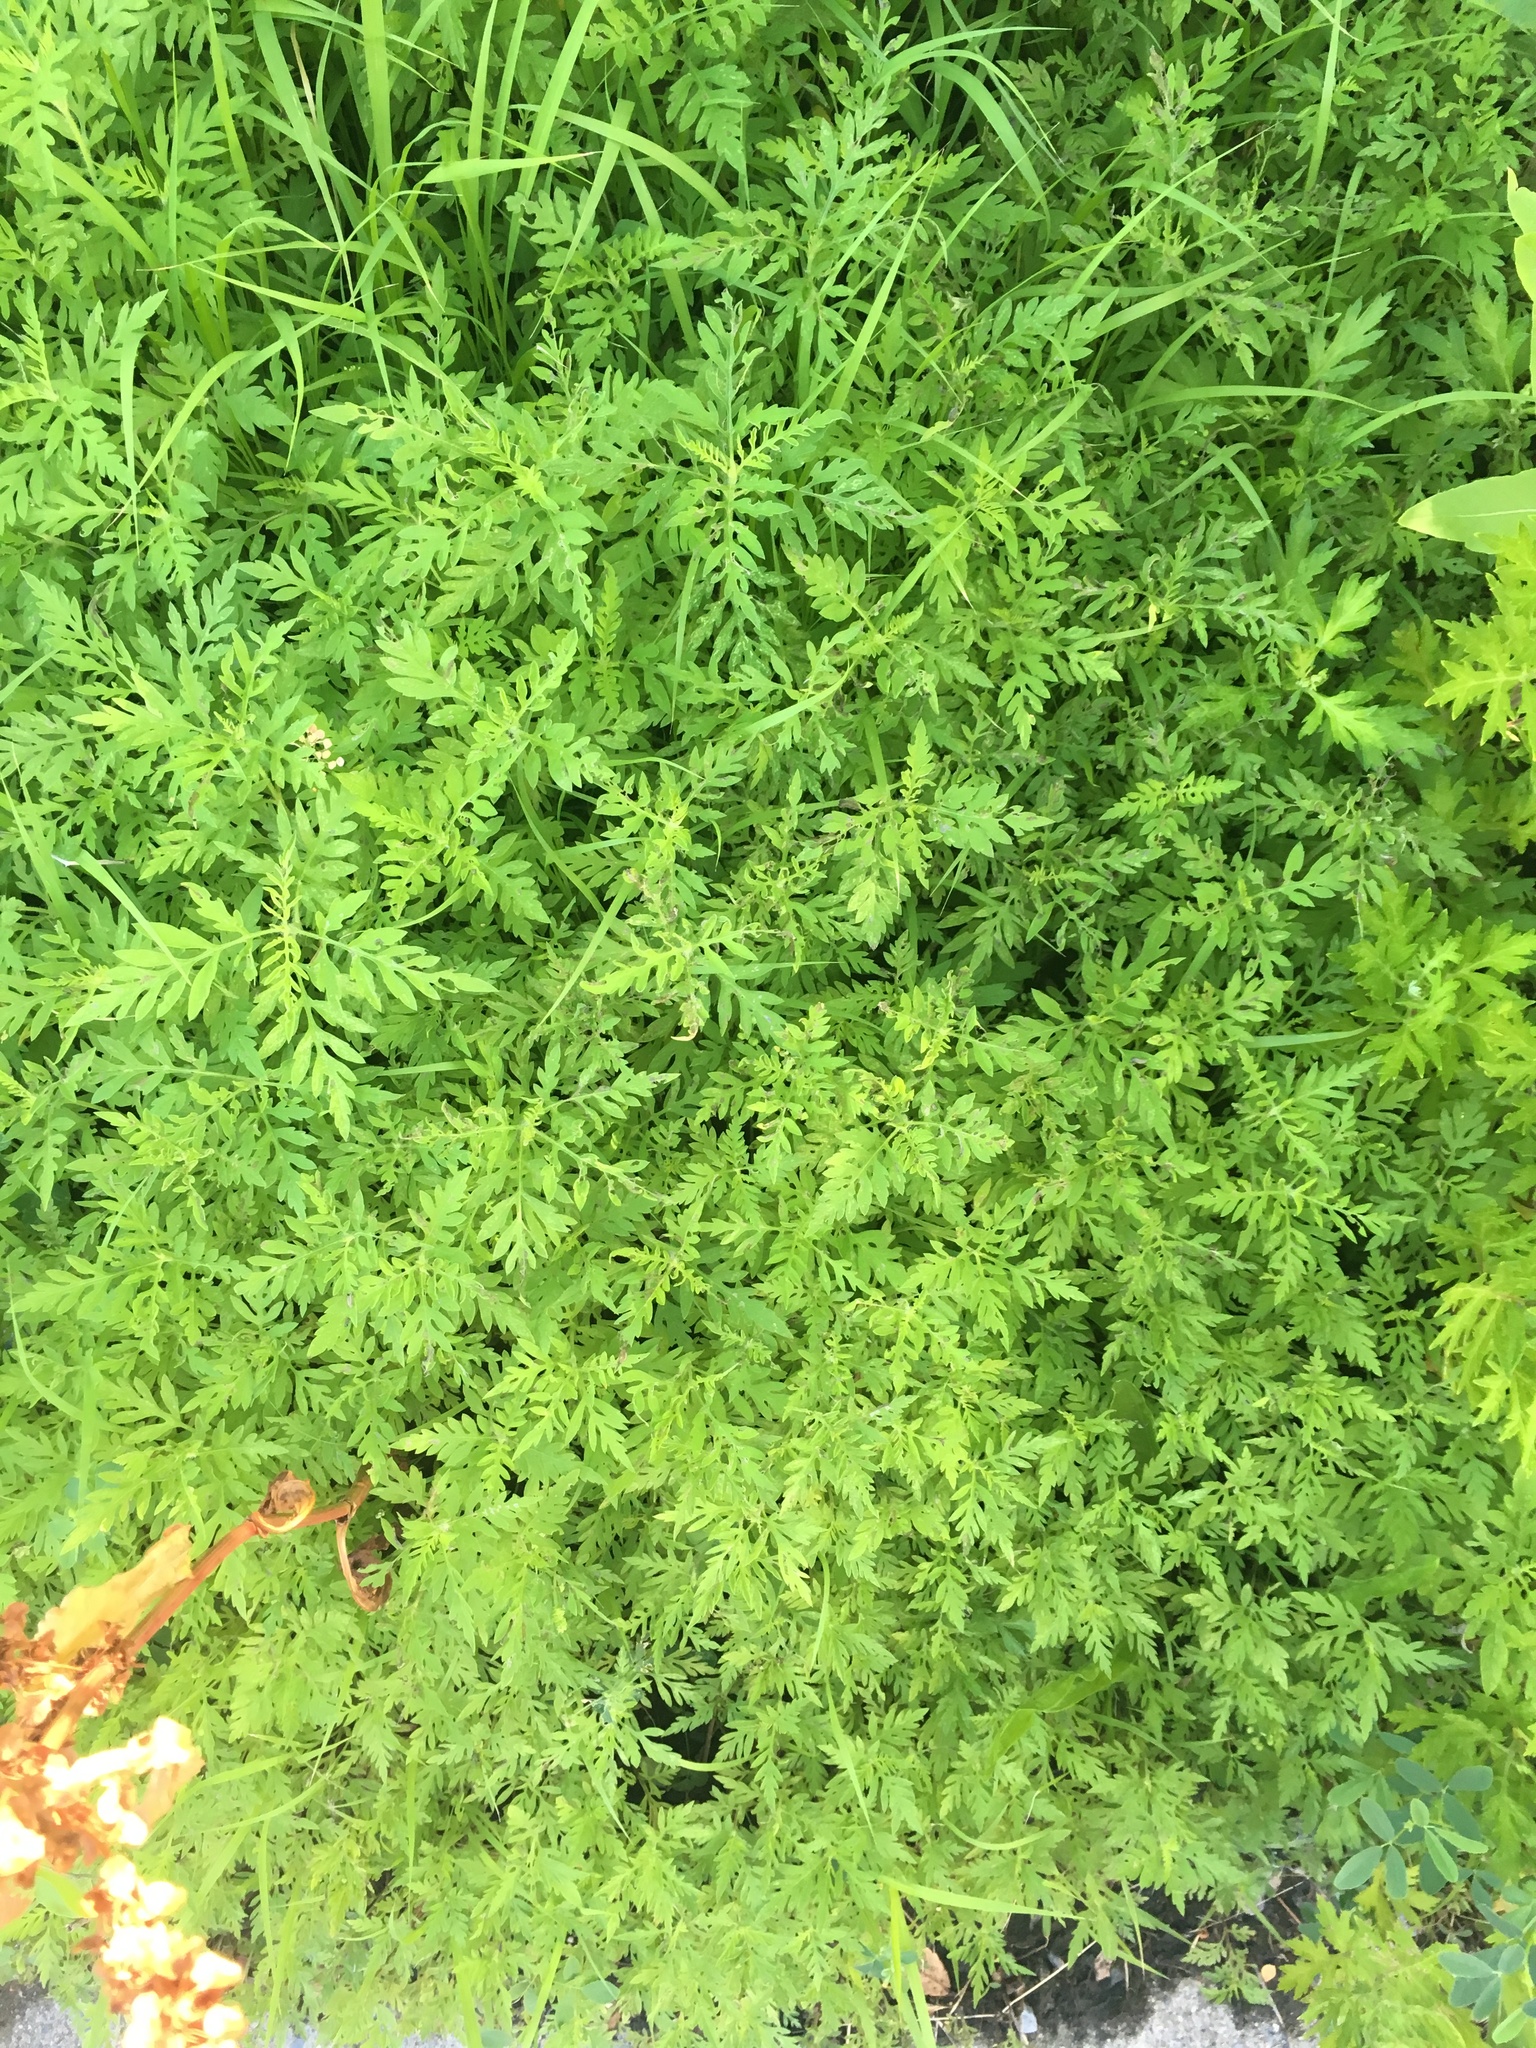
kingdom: Plantae
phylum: Tracheophyta
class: Magnoliopsida
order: Asterales
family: Asteraceae
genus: Ambrosia
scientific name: Ambrosia artemisiifolia
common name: Annual ragweed
